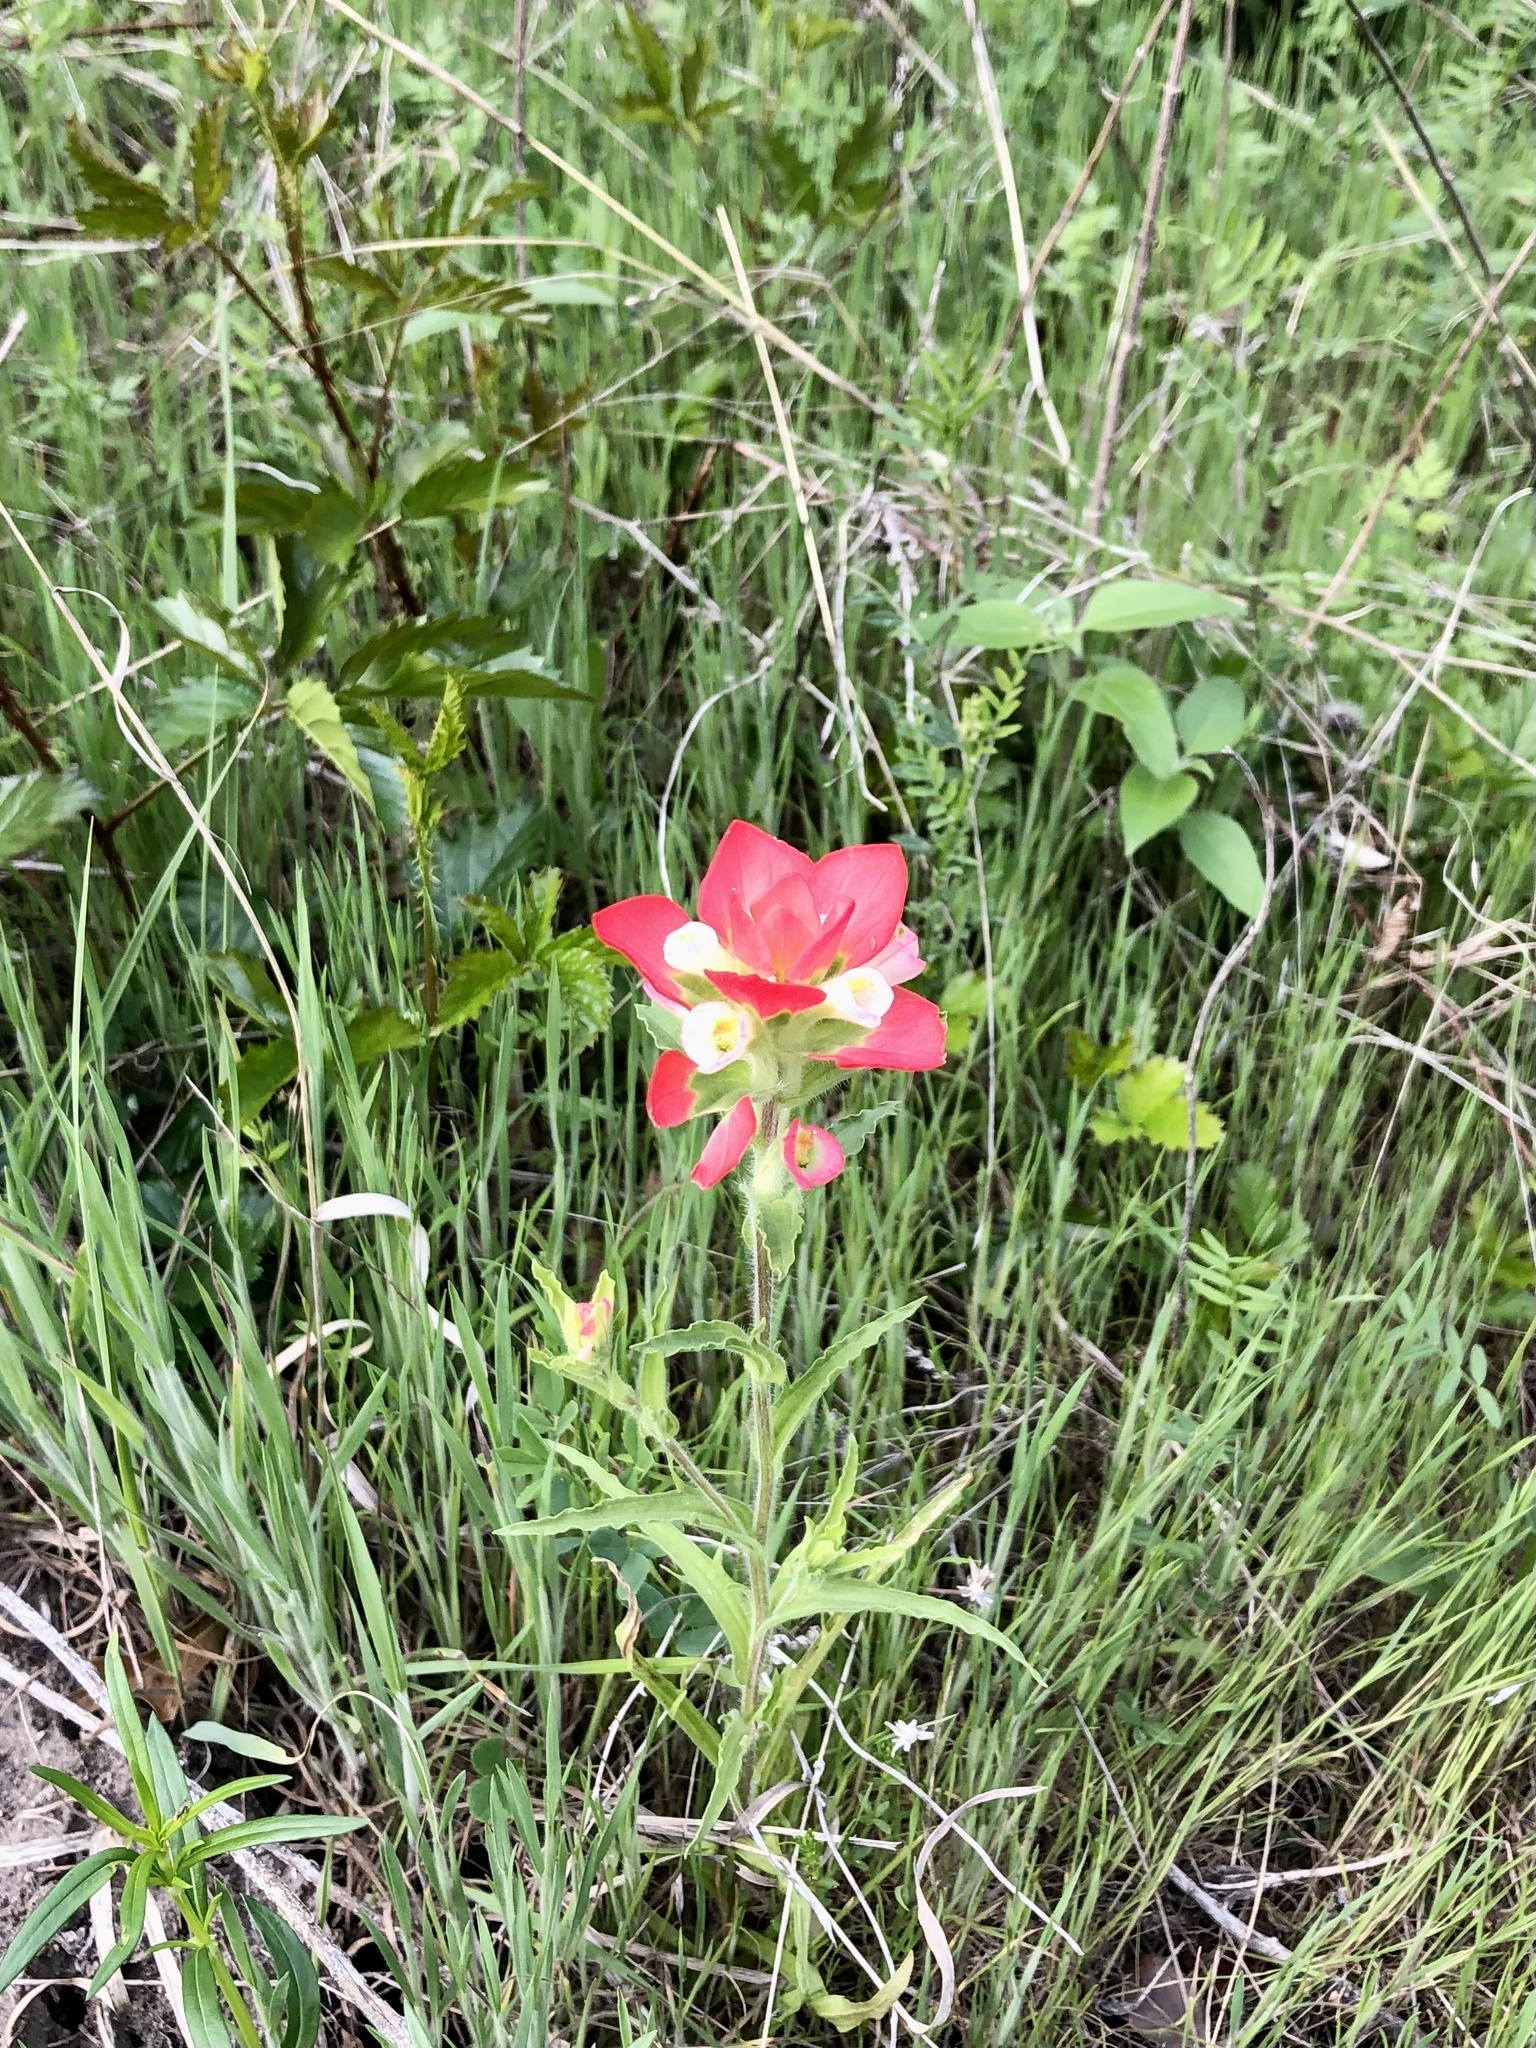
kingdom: Plantae
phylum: Tracheophyta
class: Magnoliopsida
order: Lamiales
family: Orobanchaceae
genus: Castilleja
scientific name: Castilleja indivisa
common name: Texas paintbrush
